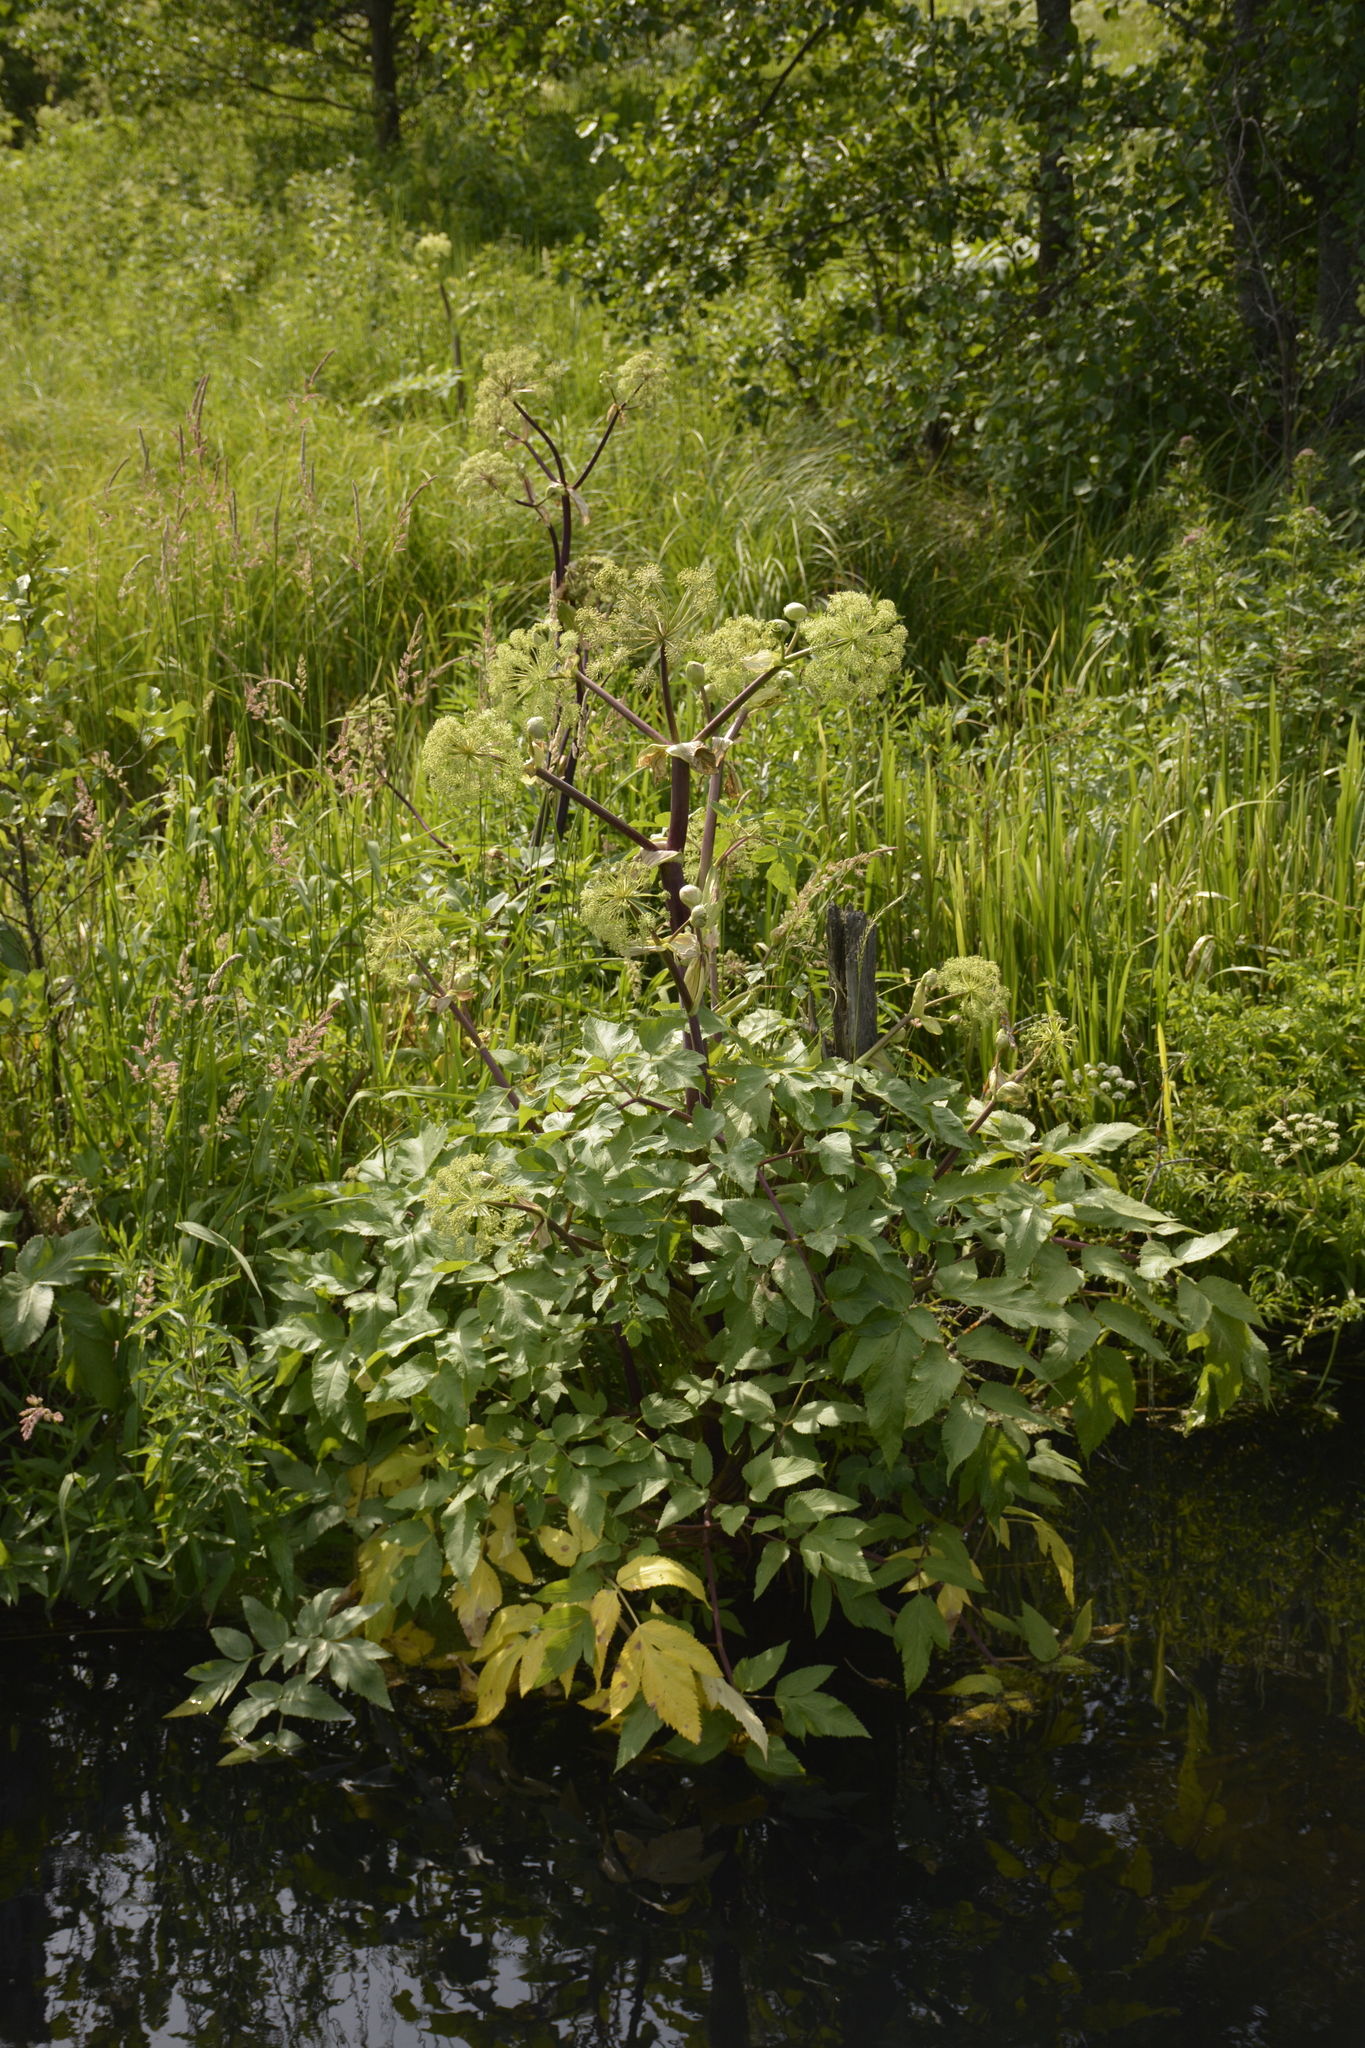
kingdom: Plantae
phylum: Tracheophyta
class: Magnoliopsida
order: Apiales
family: Apiaceae
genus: Angelica
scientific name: Angelica archangelica
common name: Garden angelica
